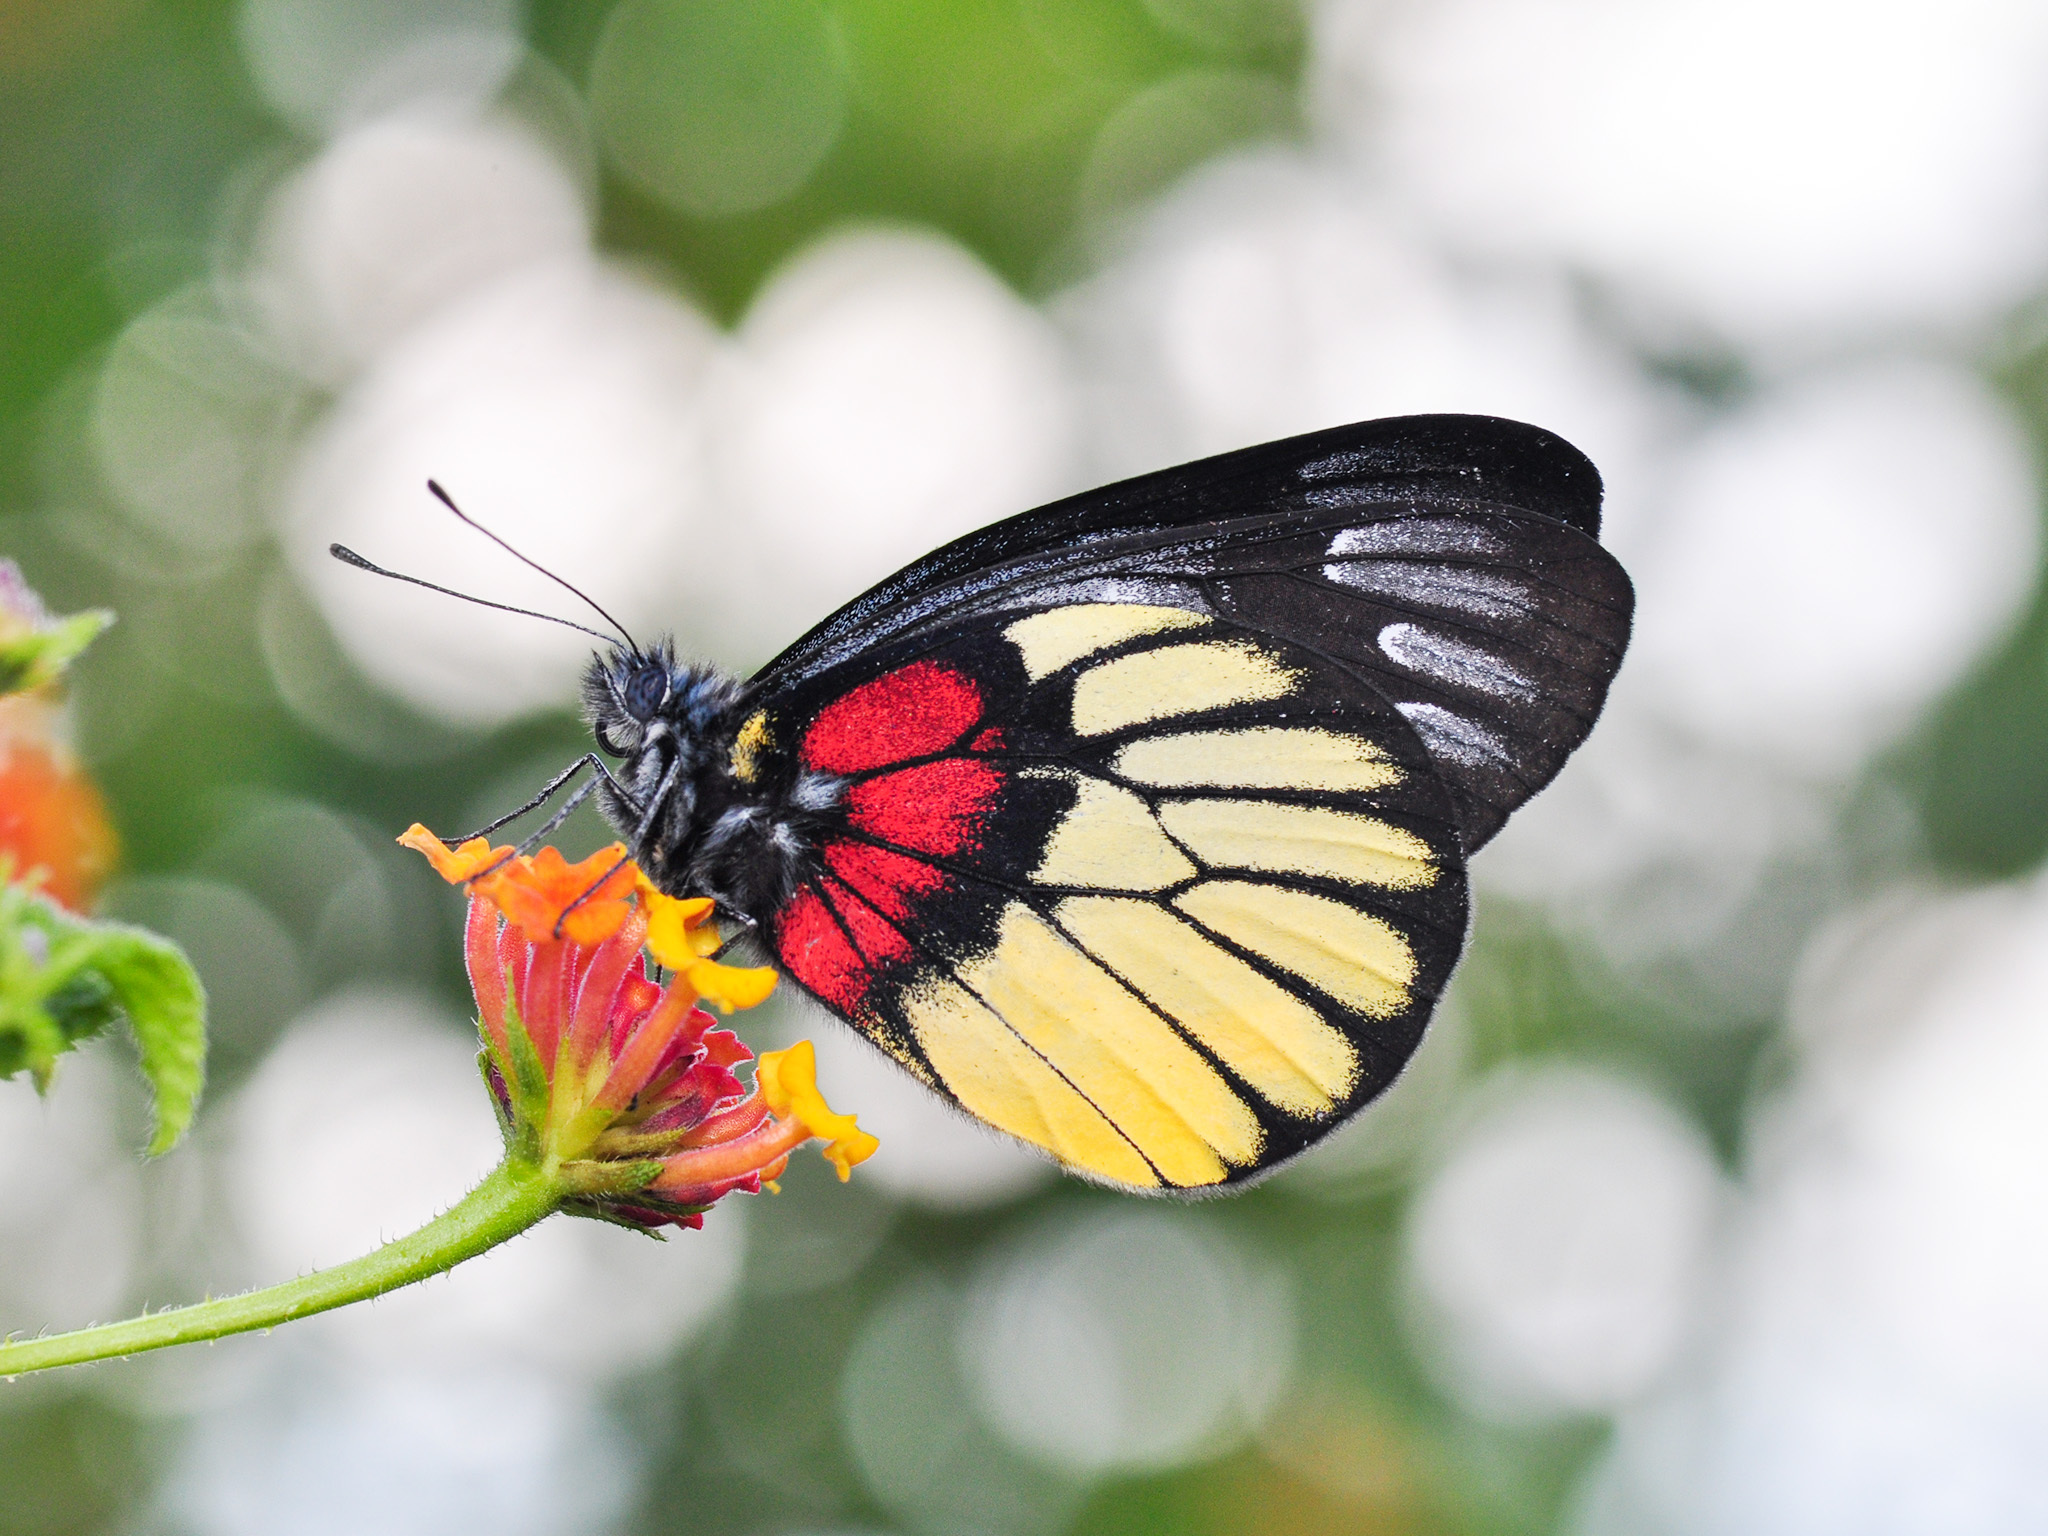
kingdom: Animalia
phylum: Arthropoda
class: Insecta
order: Lepidoptera
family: Pieridae
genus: Delias
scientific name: Delias ninus
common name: Malayan jezebel
